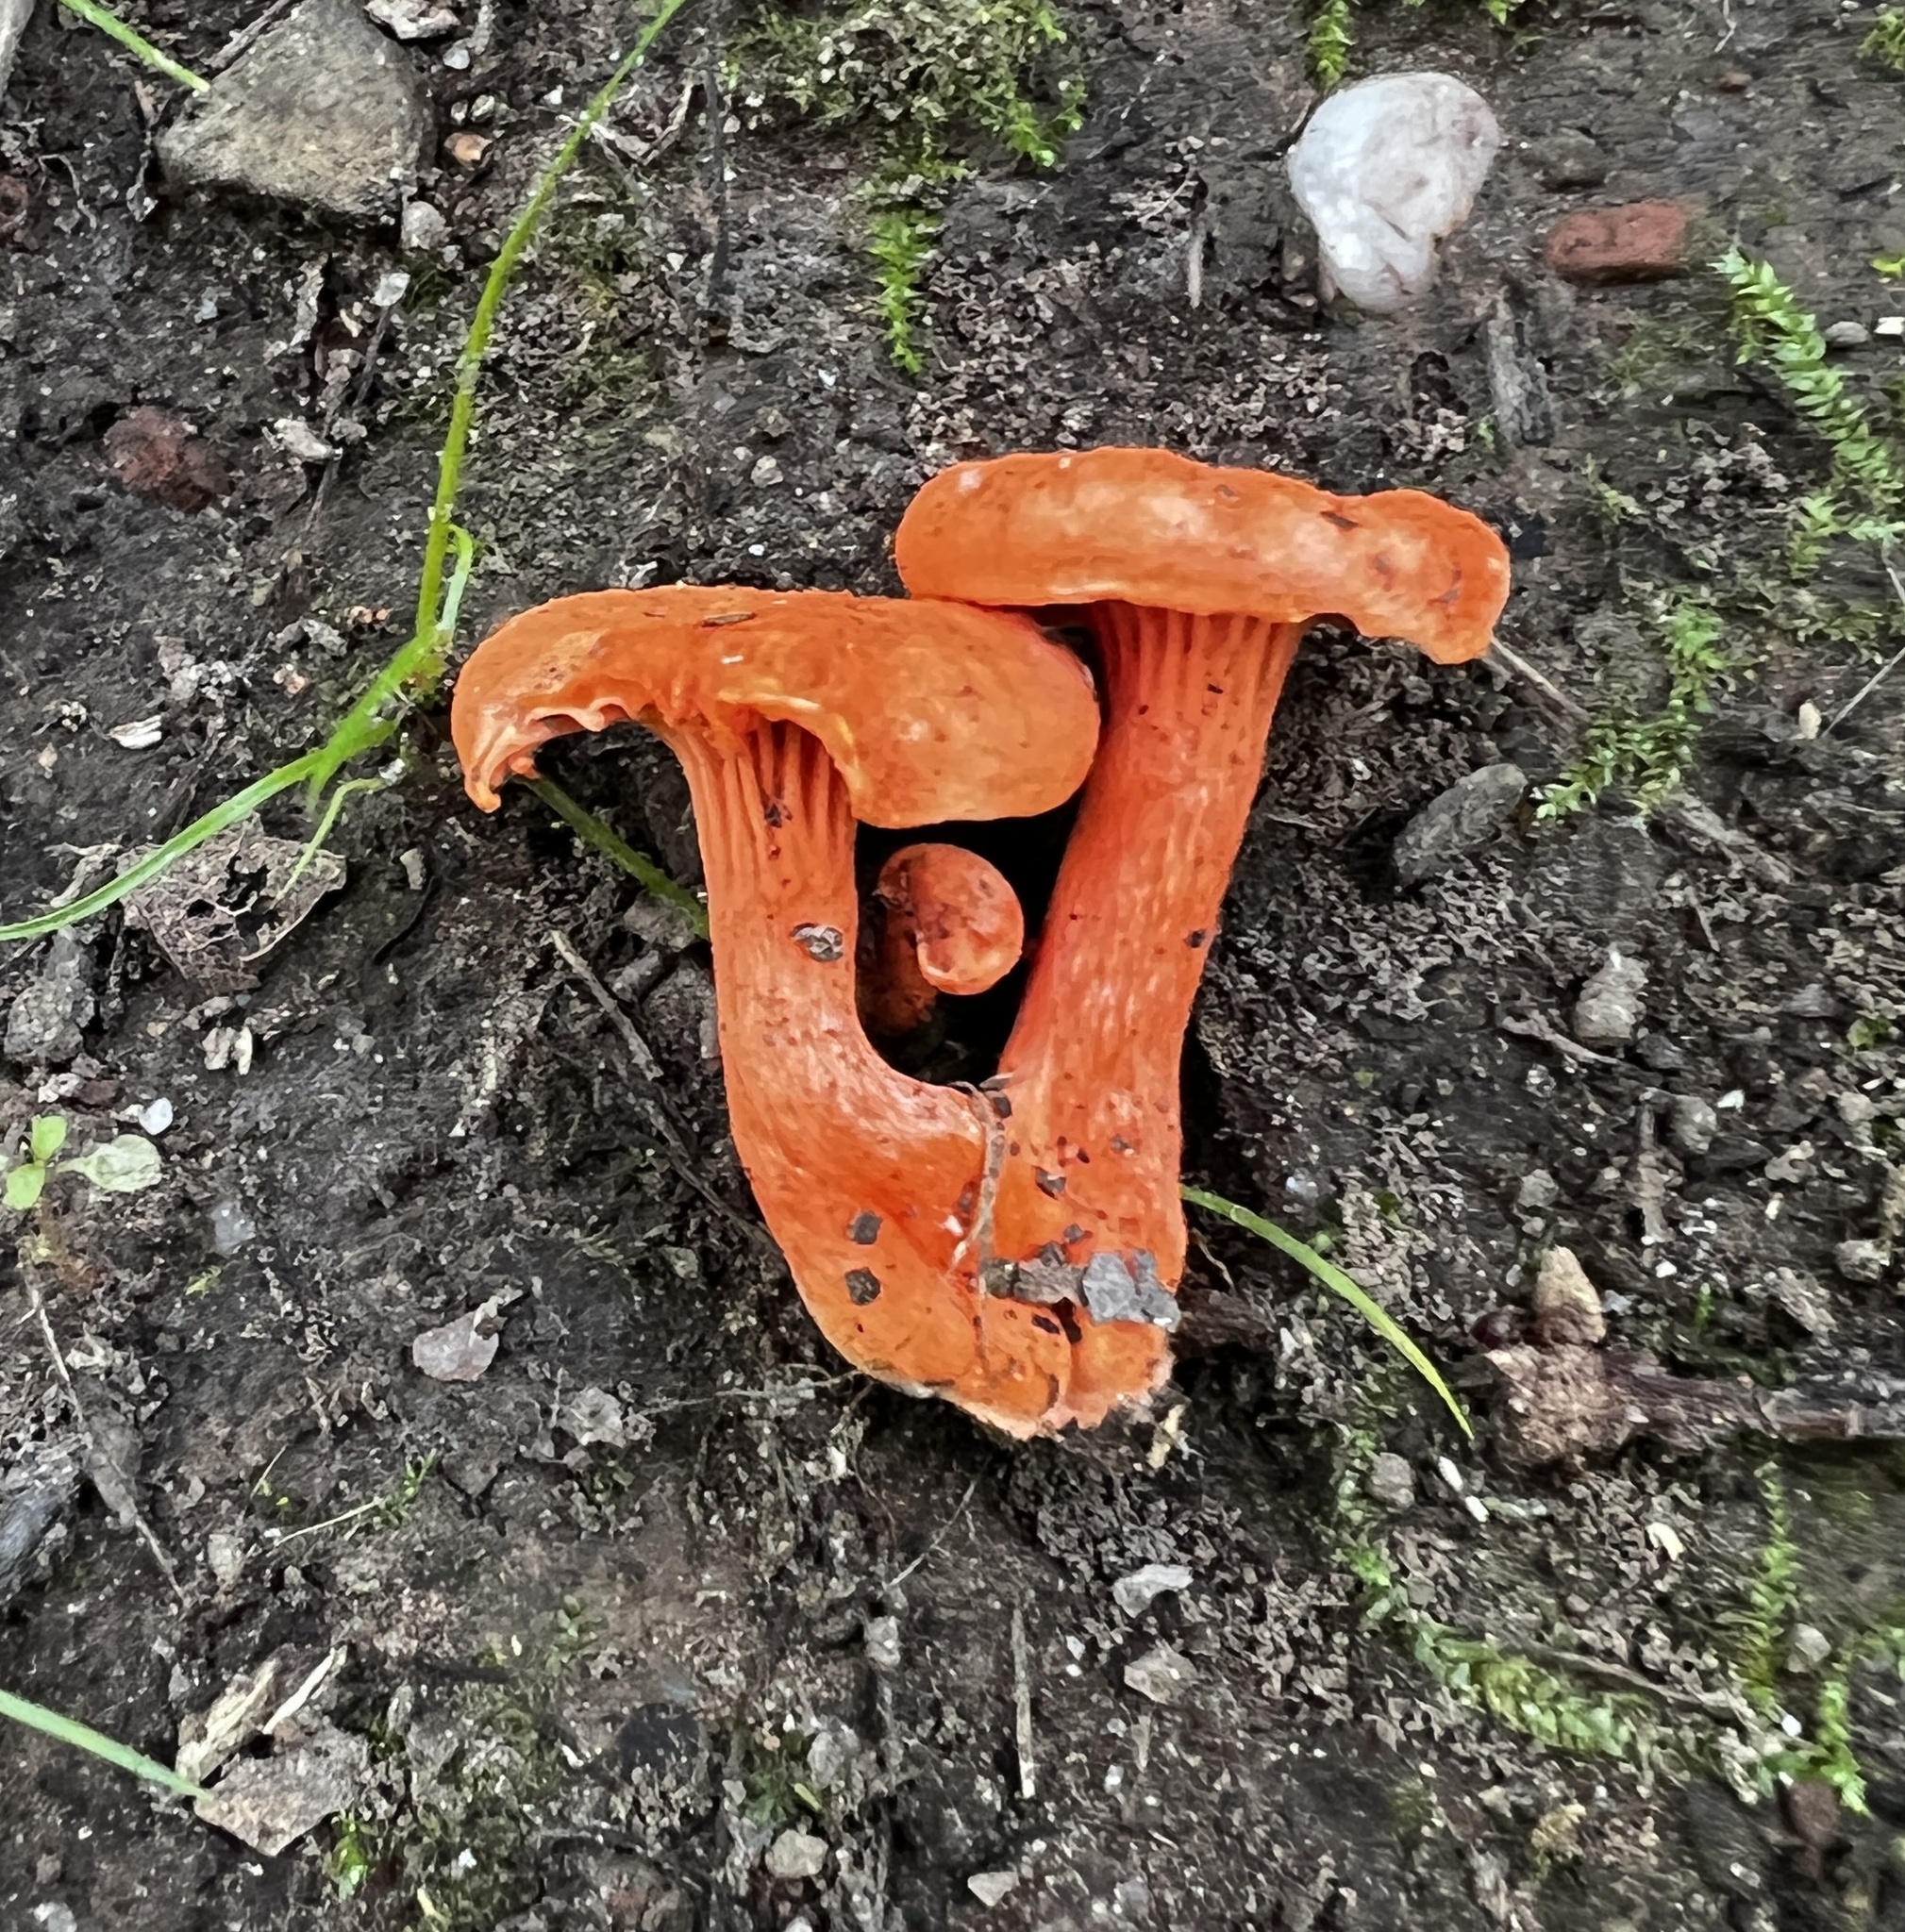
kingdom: Fungi
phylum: Basidiomycota
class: Agaricomycetes
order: Cantharellales
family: Hydnaceae
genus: Cantharellus
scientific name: Cantharellus cinnabarinus
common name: Cinnabar chanterelle
